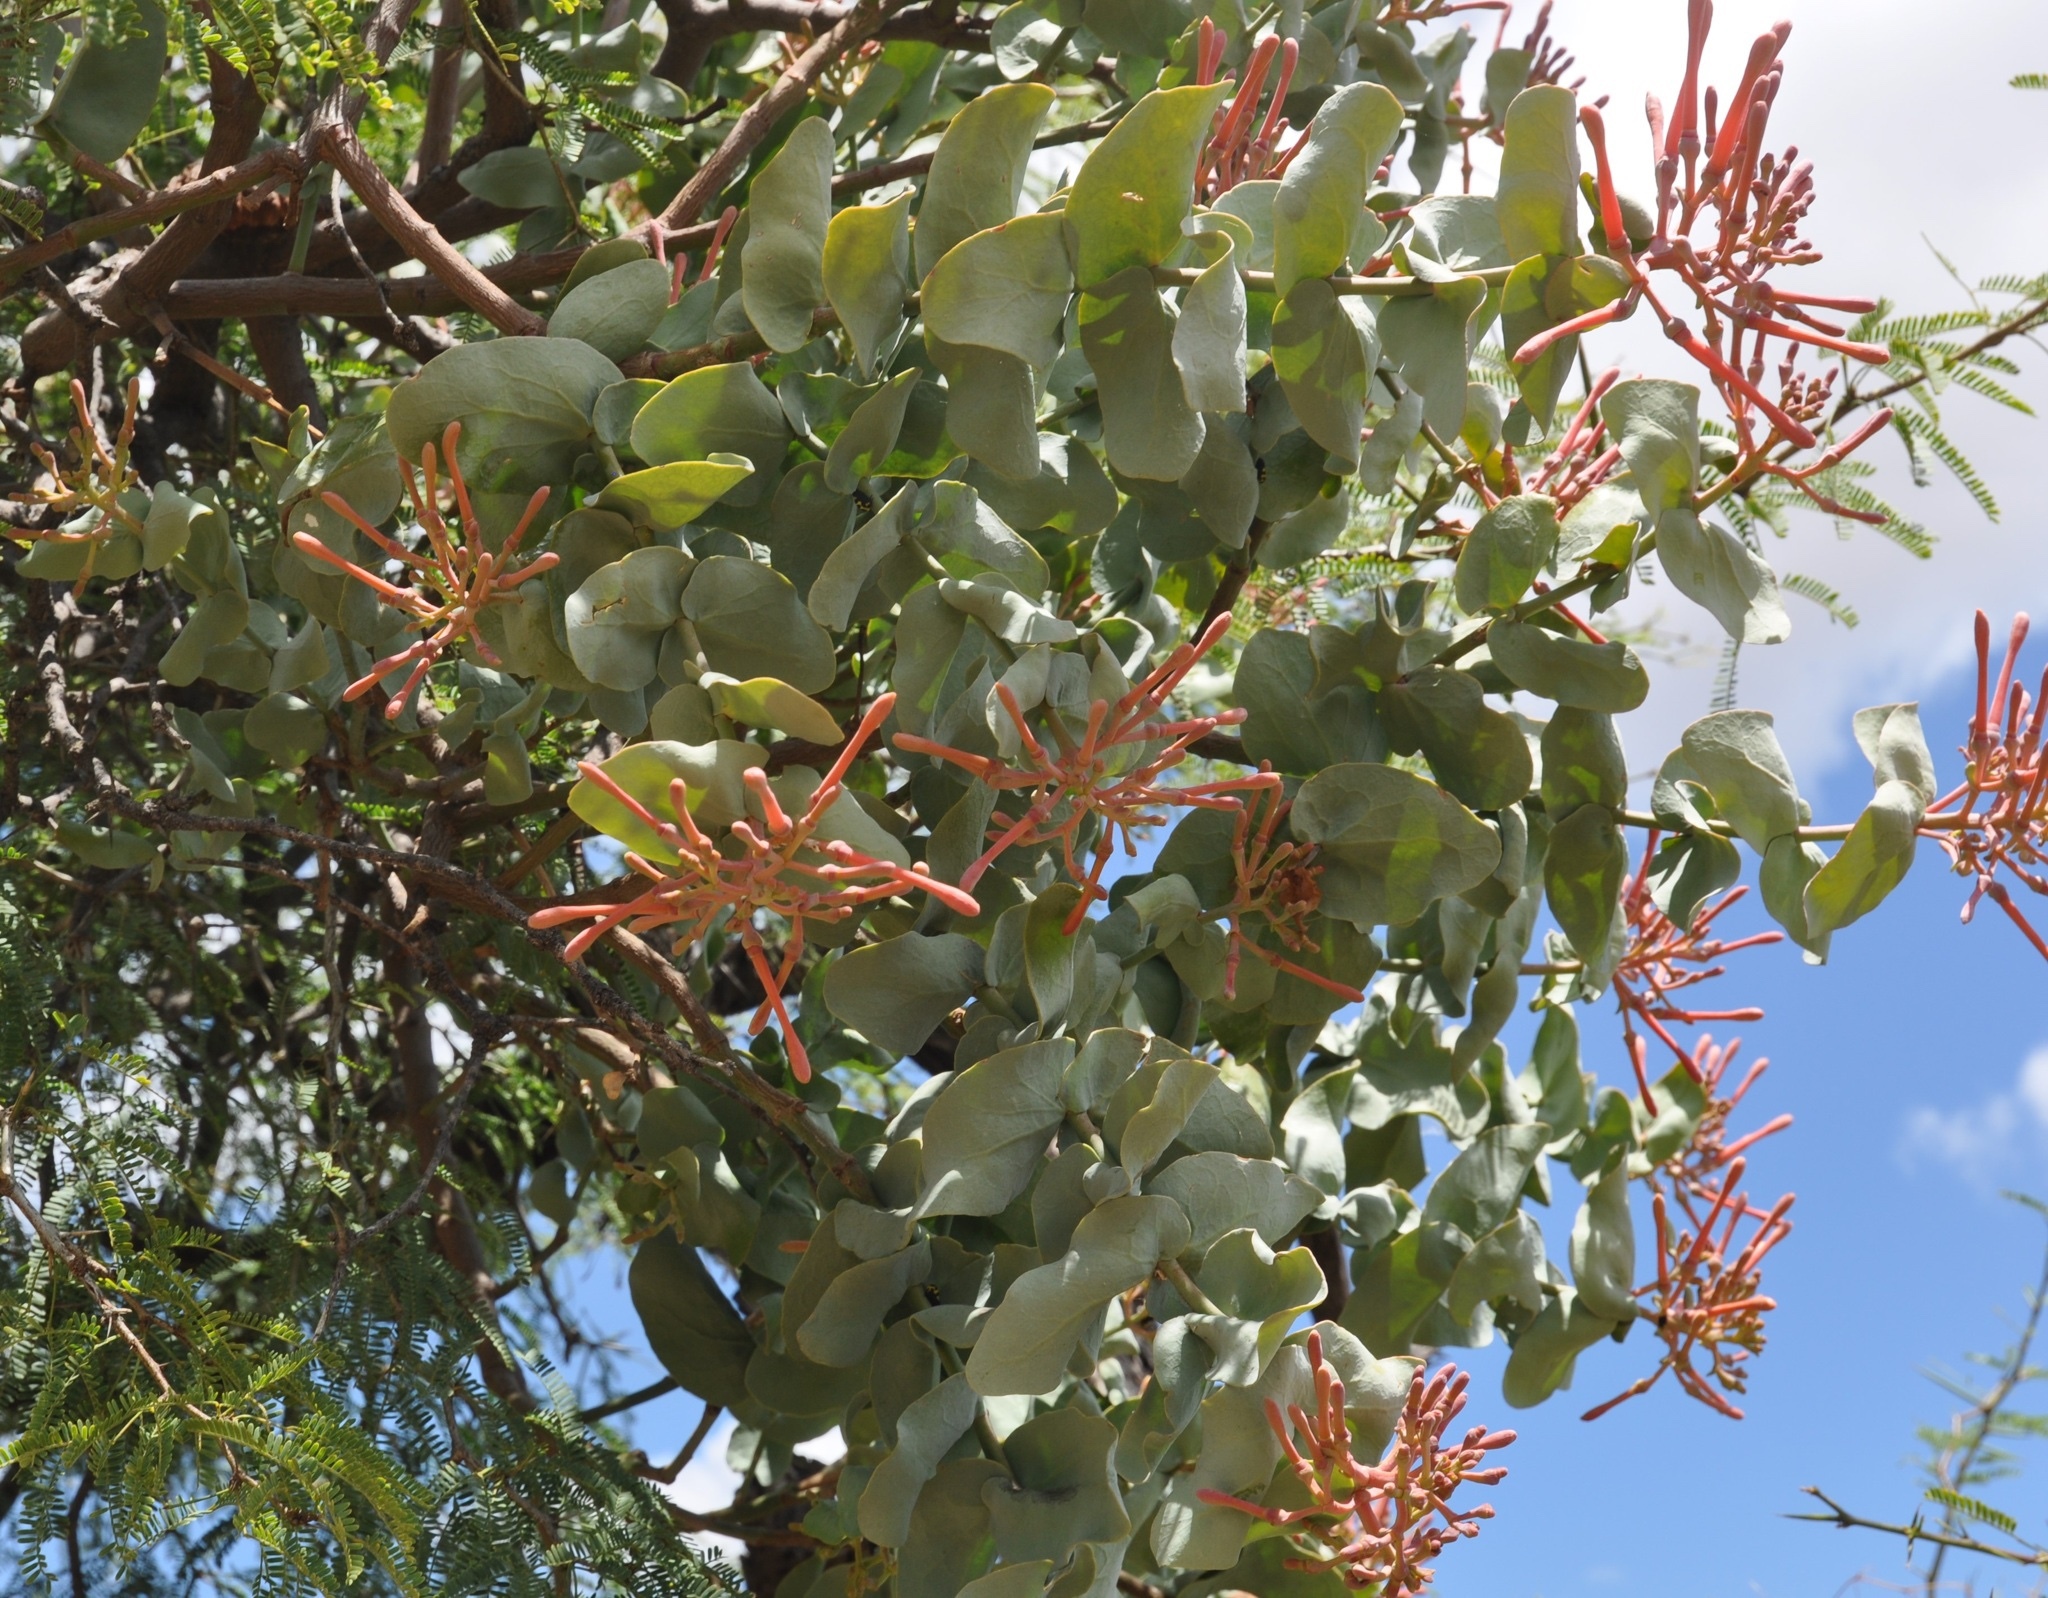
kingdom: Plantae
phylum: Tracheophyta
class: Magnoliopsida
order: Santalales
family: Loranthaceae
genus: Psittacanthus
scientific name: Psittacanthus calyculatus
